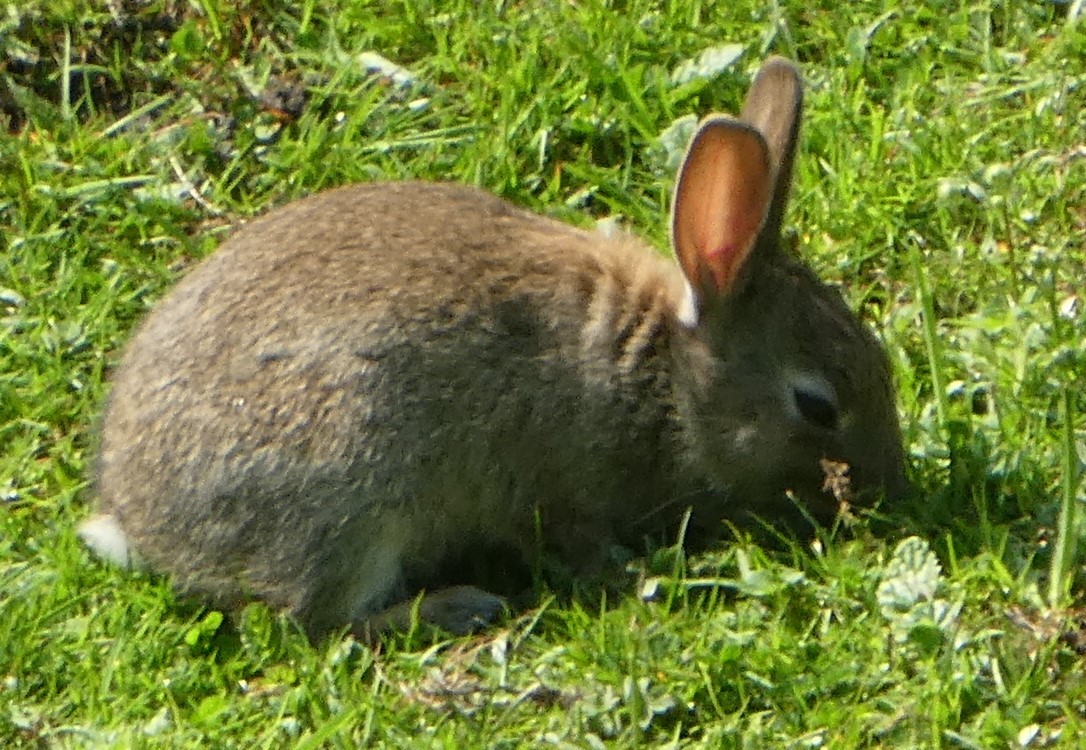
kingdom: Animalia
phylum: Chordata
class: Mammalia
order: Lagomorpha
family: Leporidae
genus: Oryctolagus
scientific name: Oryctolagus cuniculus
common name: European rabbit
